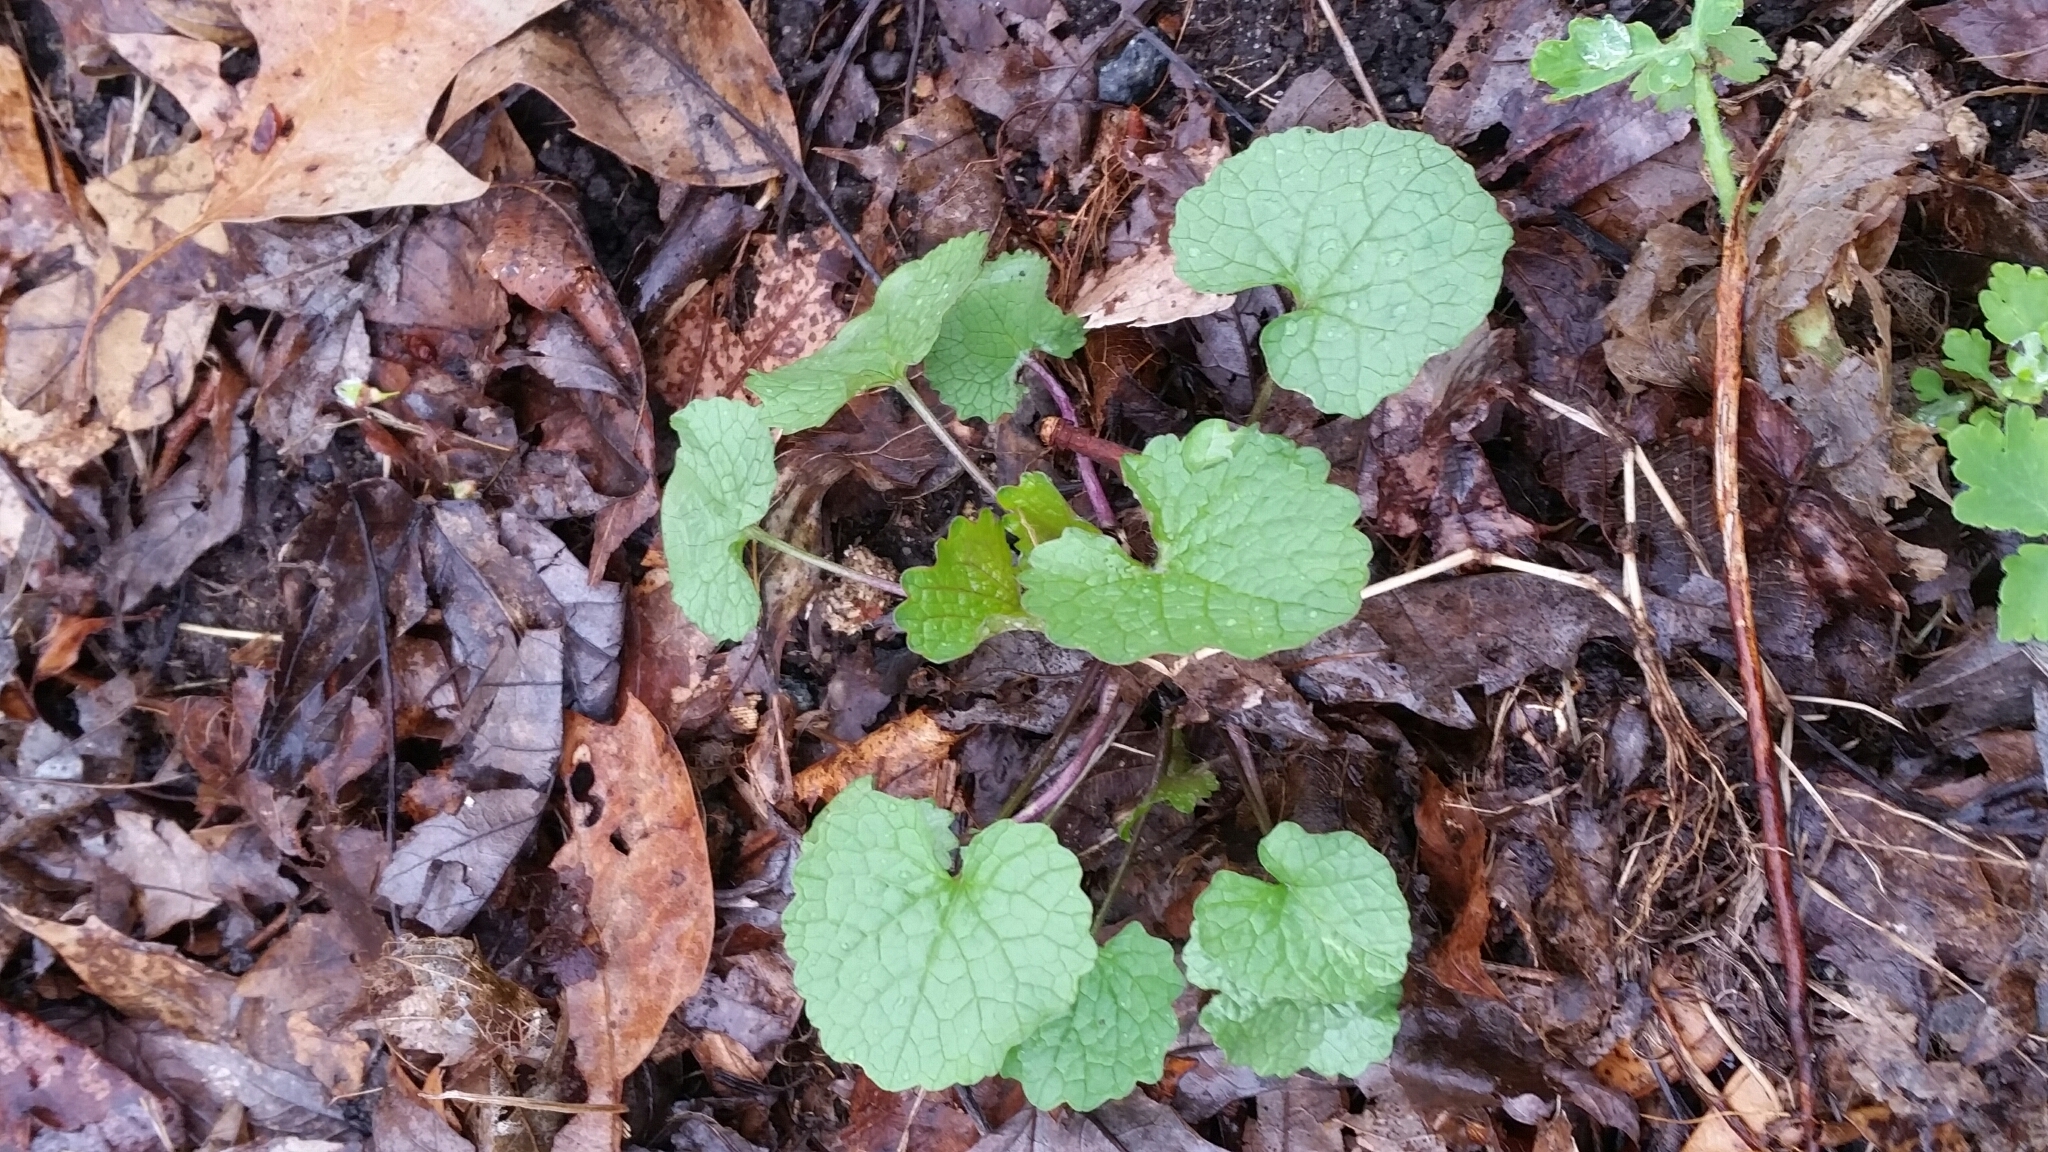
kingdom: Plantae
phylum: Tracheophyta
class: Magnoliopsida
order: Brassicales
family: Brassicaceae
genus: Alliaria
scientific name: Alliaria petiolata
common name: Garlic mustard
